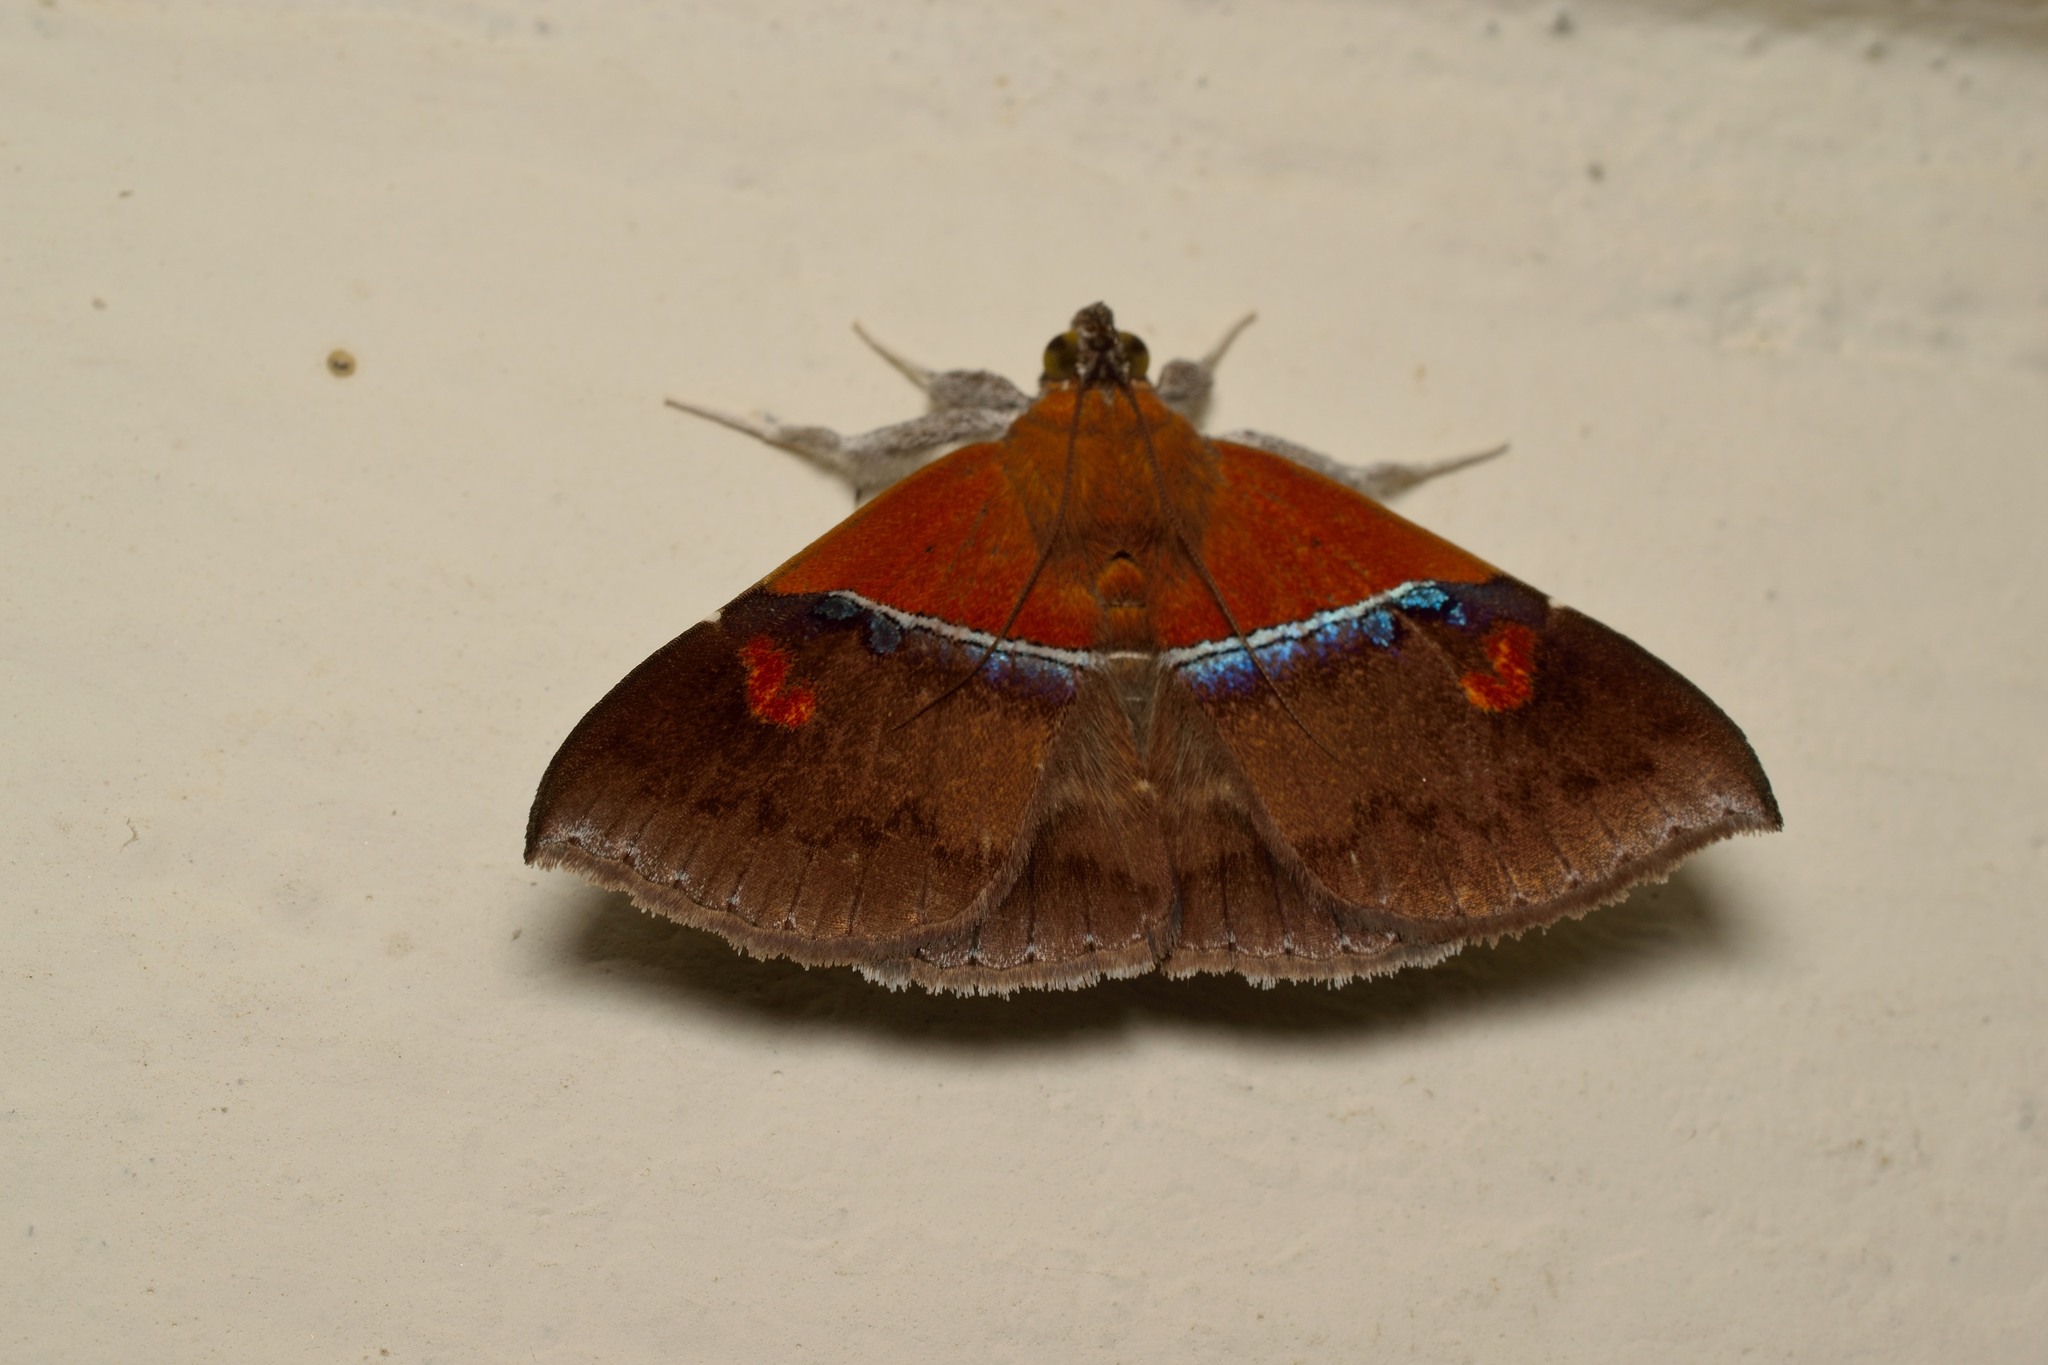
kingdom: Animalia
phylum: Arthropoda
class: Insecta
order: Lepidoptera
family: Erebidae
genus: Sympis
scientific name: Sympis rufibasis
